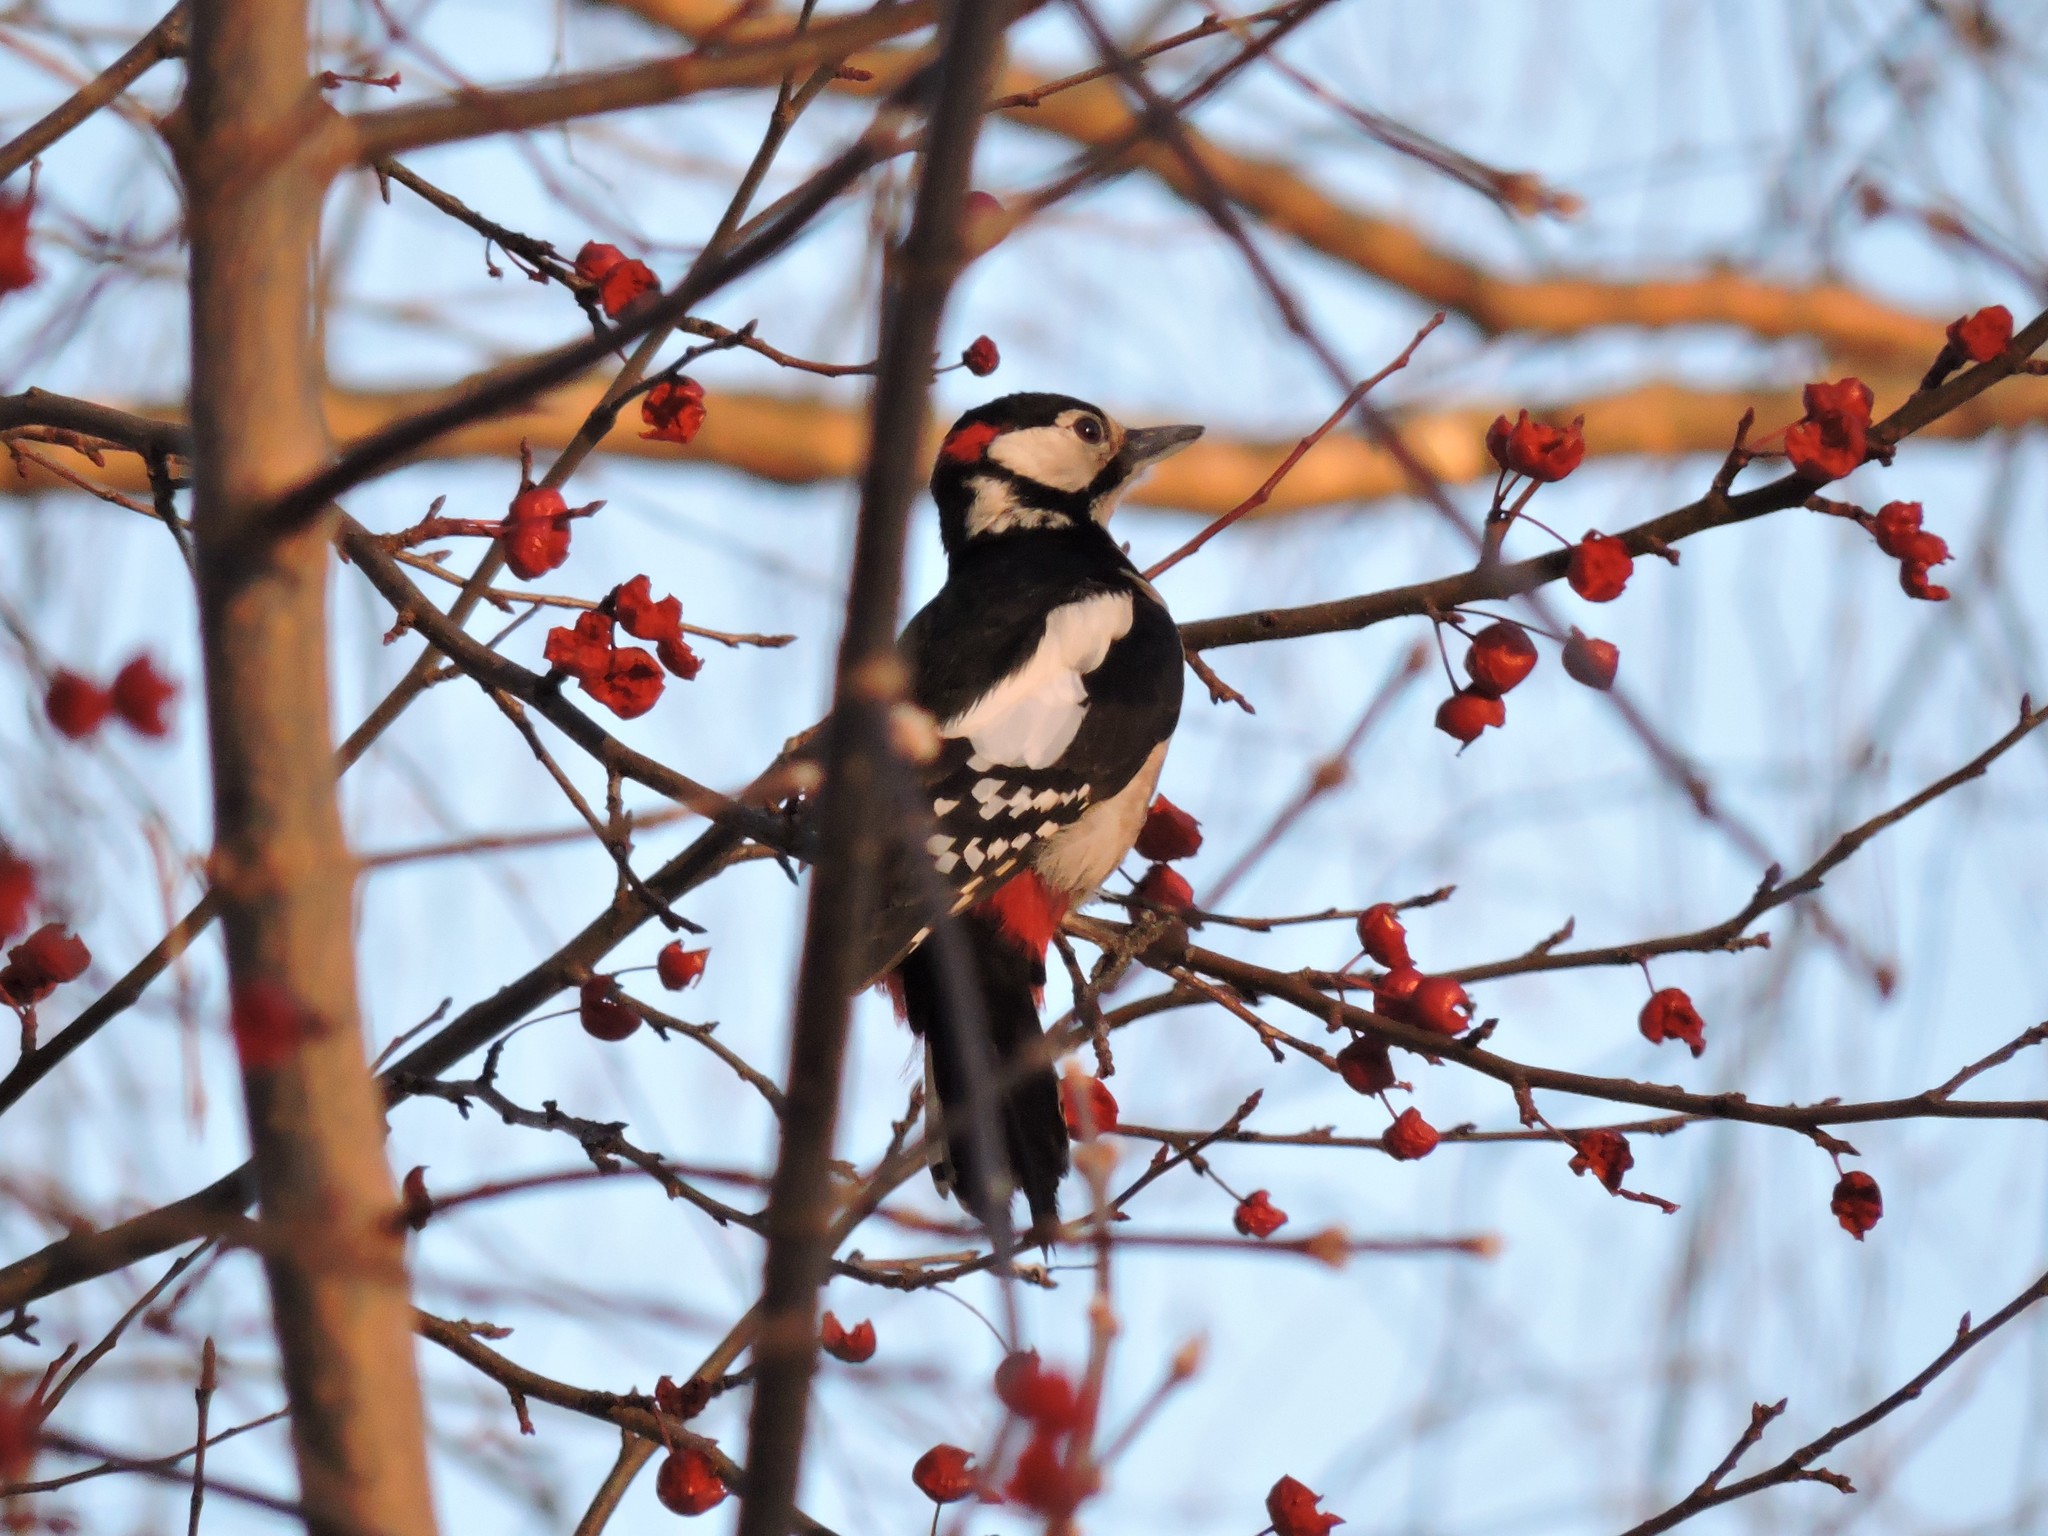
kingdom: Animalia
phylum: Chordata
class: Aves
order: Piciformes
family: Picidae
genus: Dendrocopos
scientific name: Dendrocopos major
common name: Great spotted woodpecker
